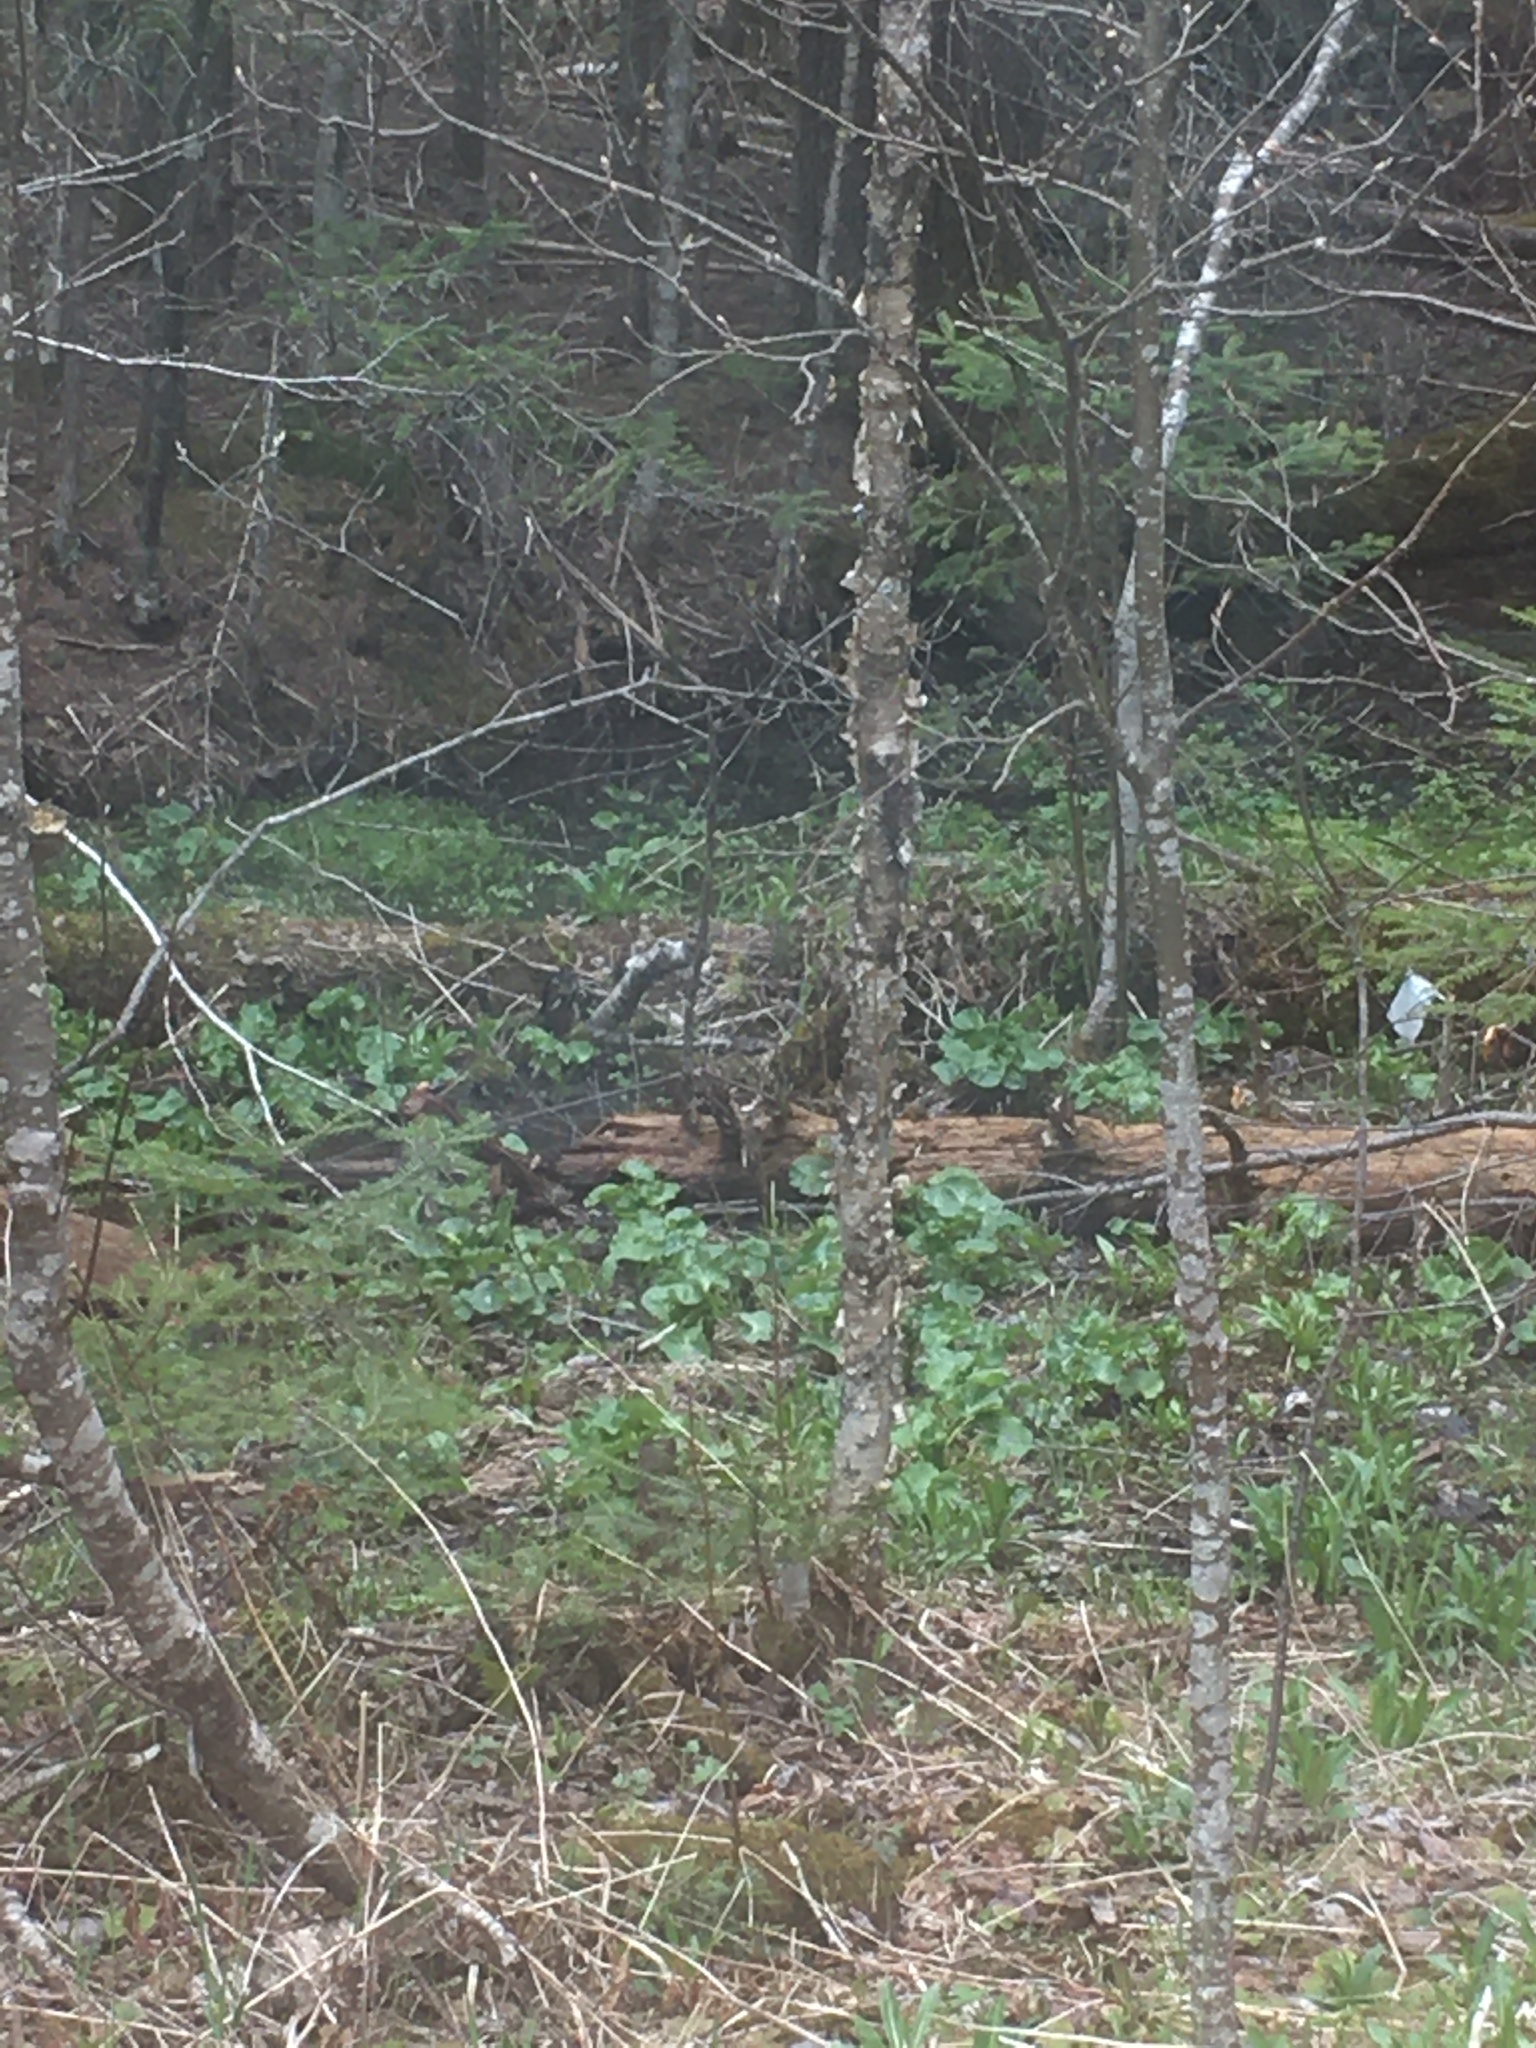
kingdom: Plantae
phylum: Tracheophyta
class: Magnoliopsida
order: Ranunculales
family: Ranunculaceae
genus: Caltha
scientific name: Caltha palustris
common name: Marsh marigold
